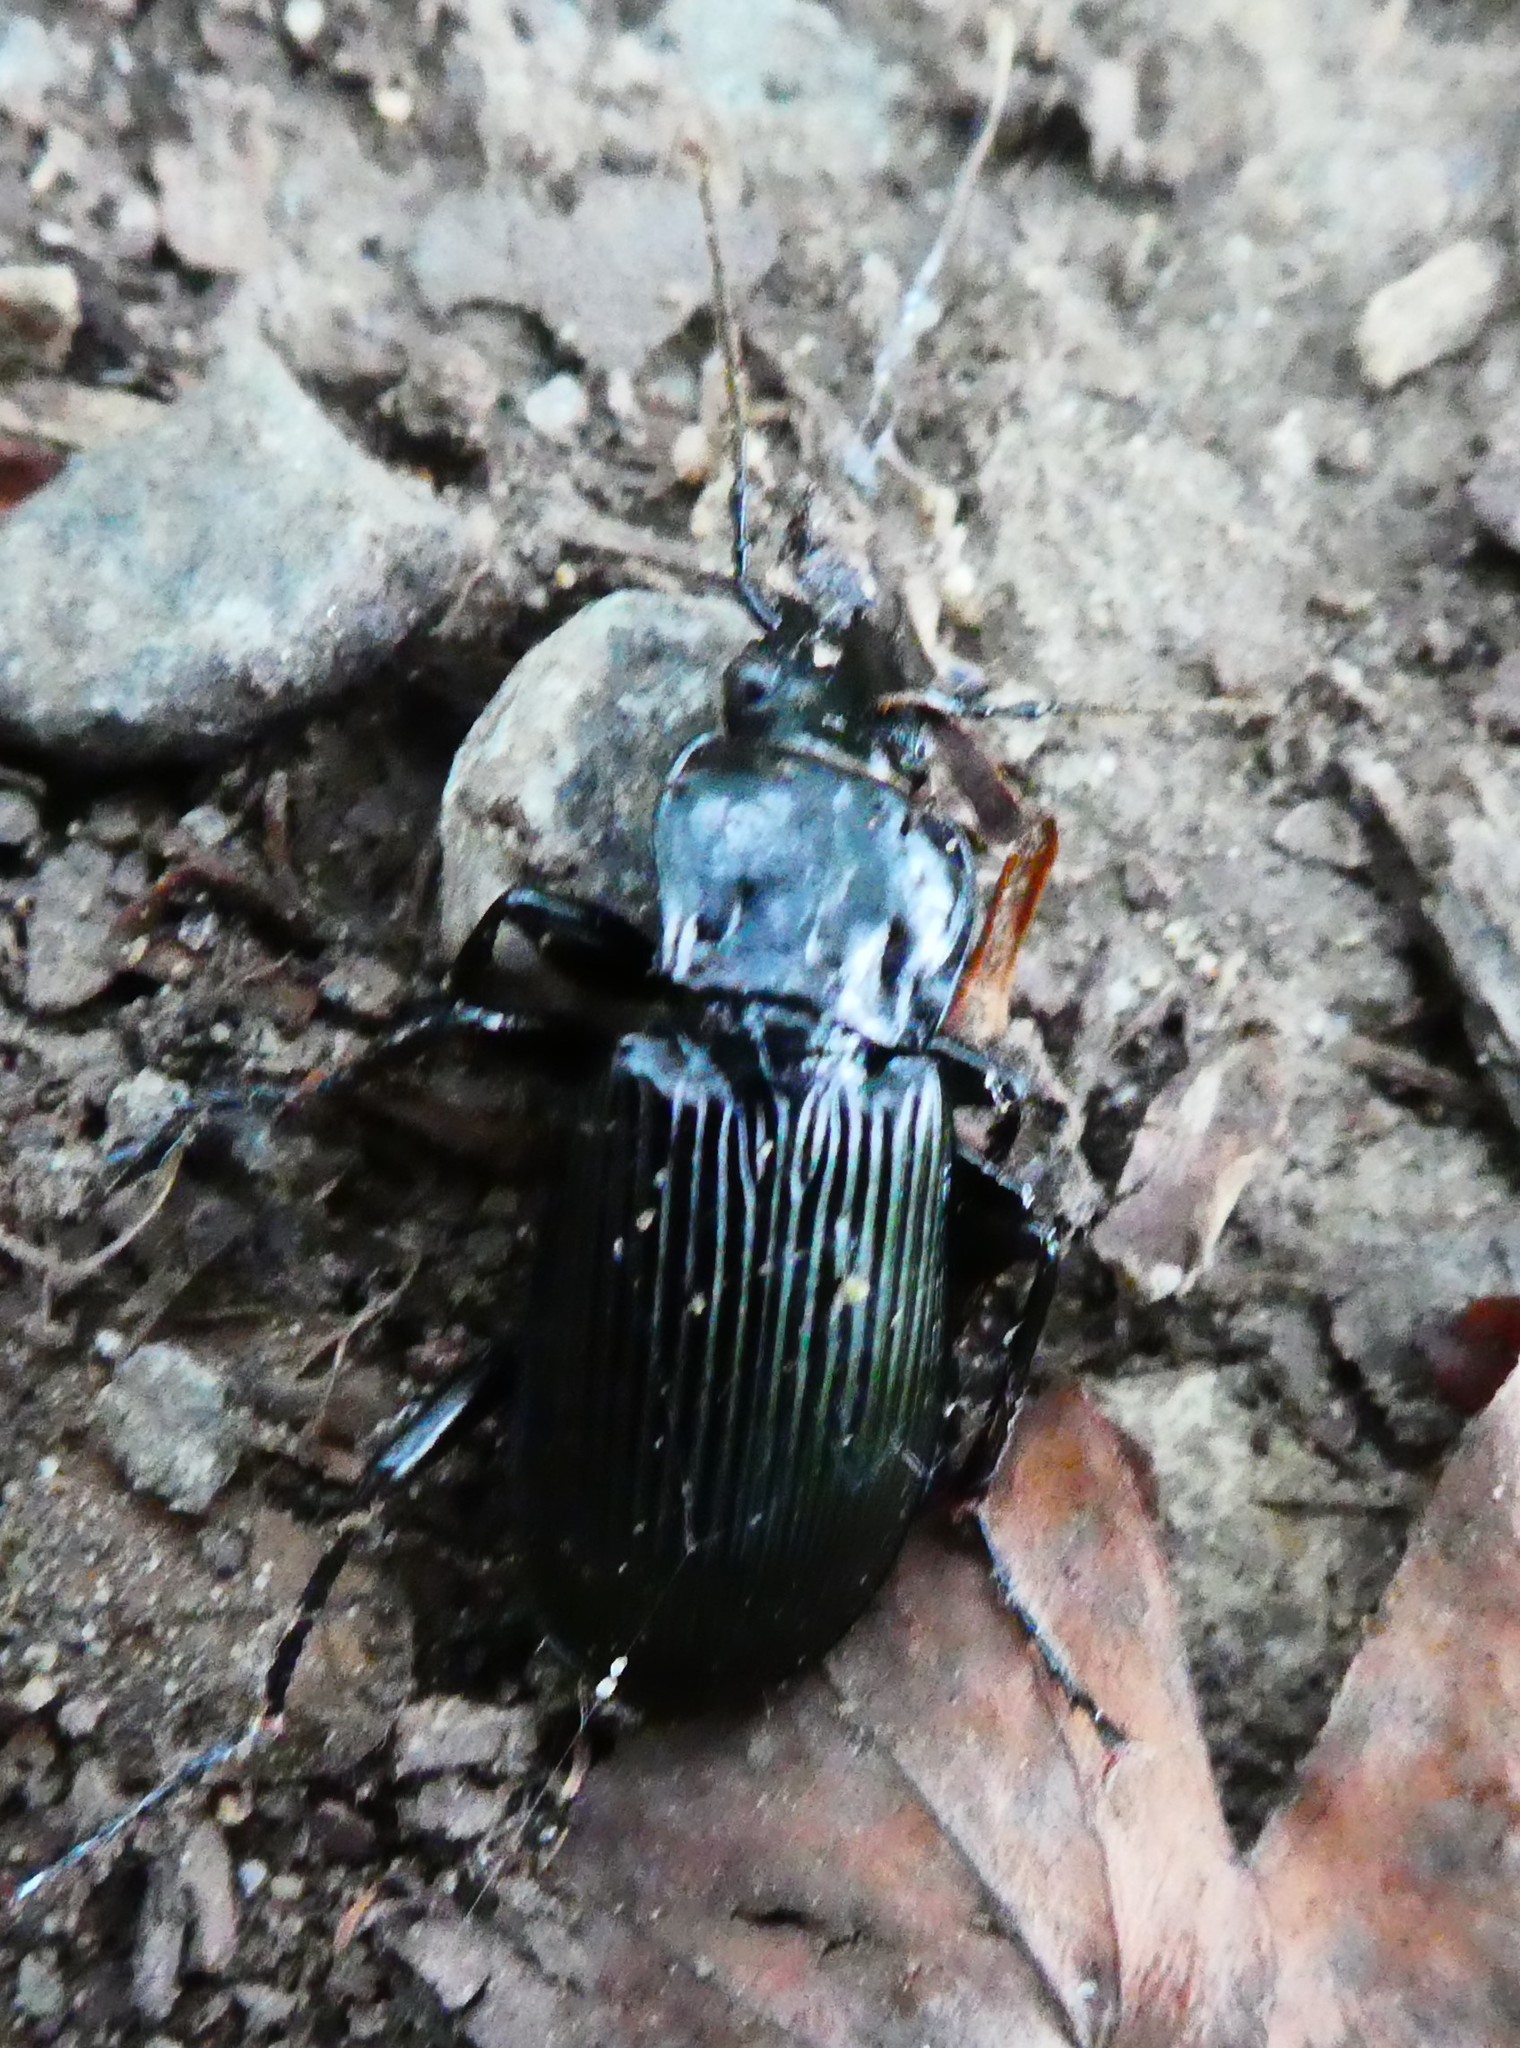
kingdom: Animalia
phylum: Arthropoda
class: Insecta
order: Coleoptera
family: Carabidae
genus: Pterostichus
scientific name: Pterostichus niger
